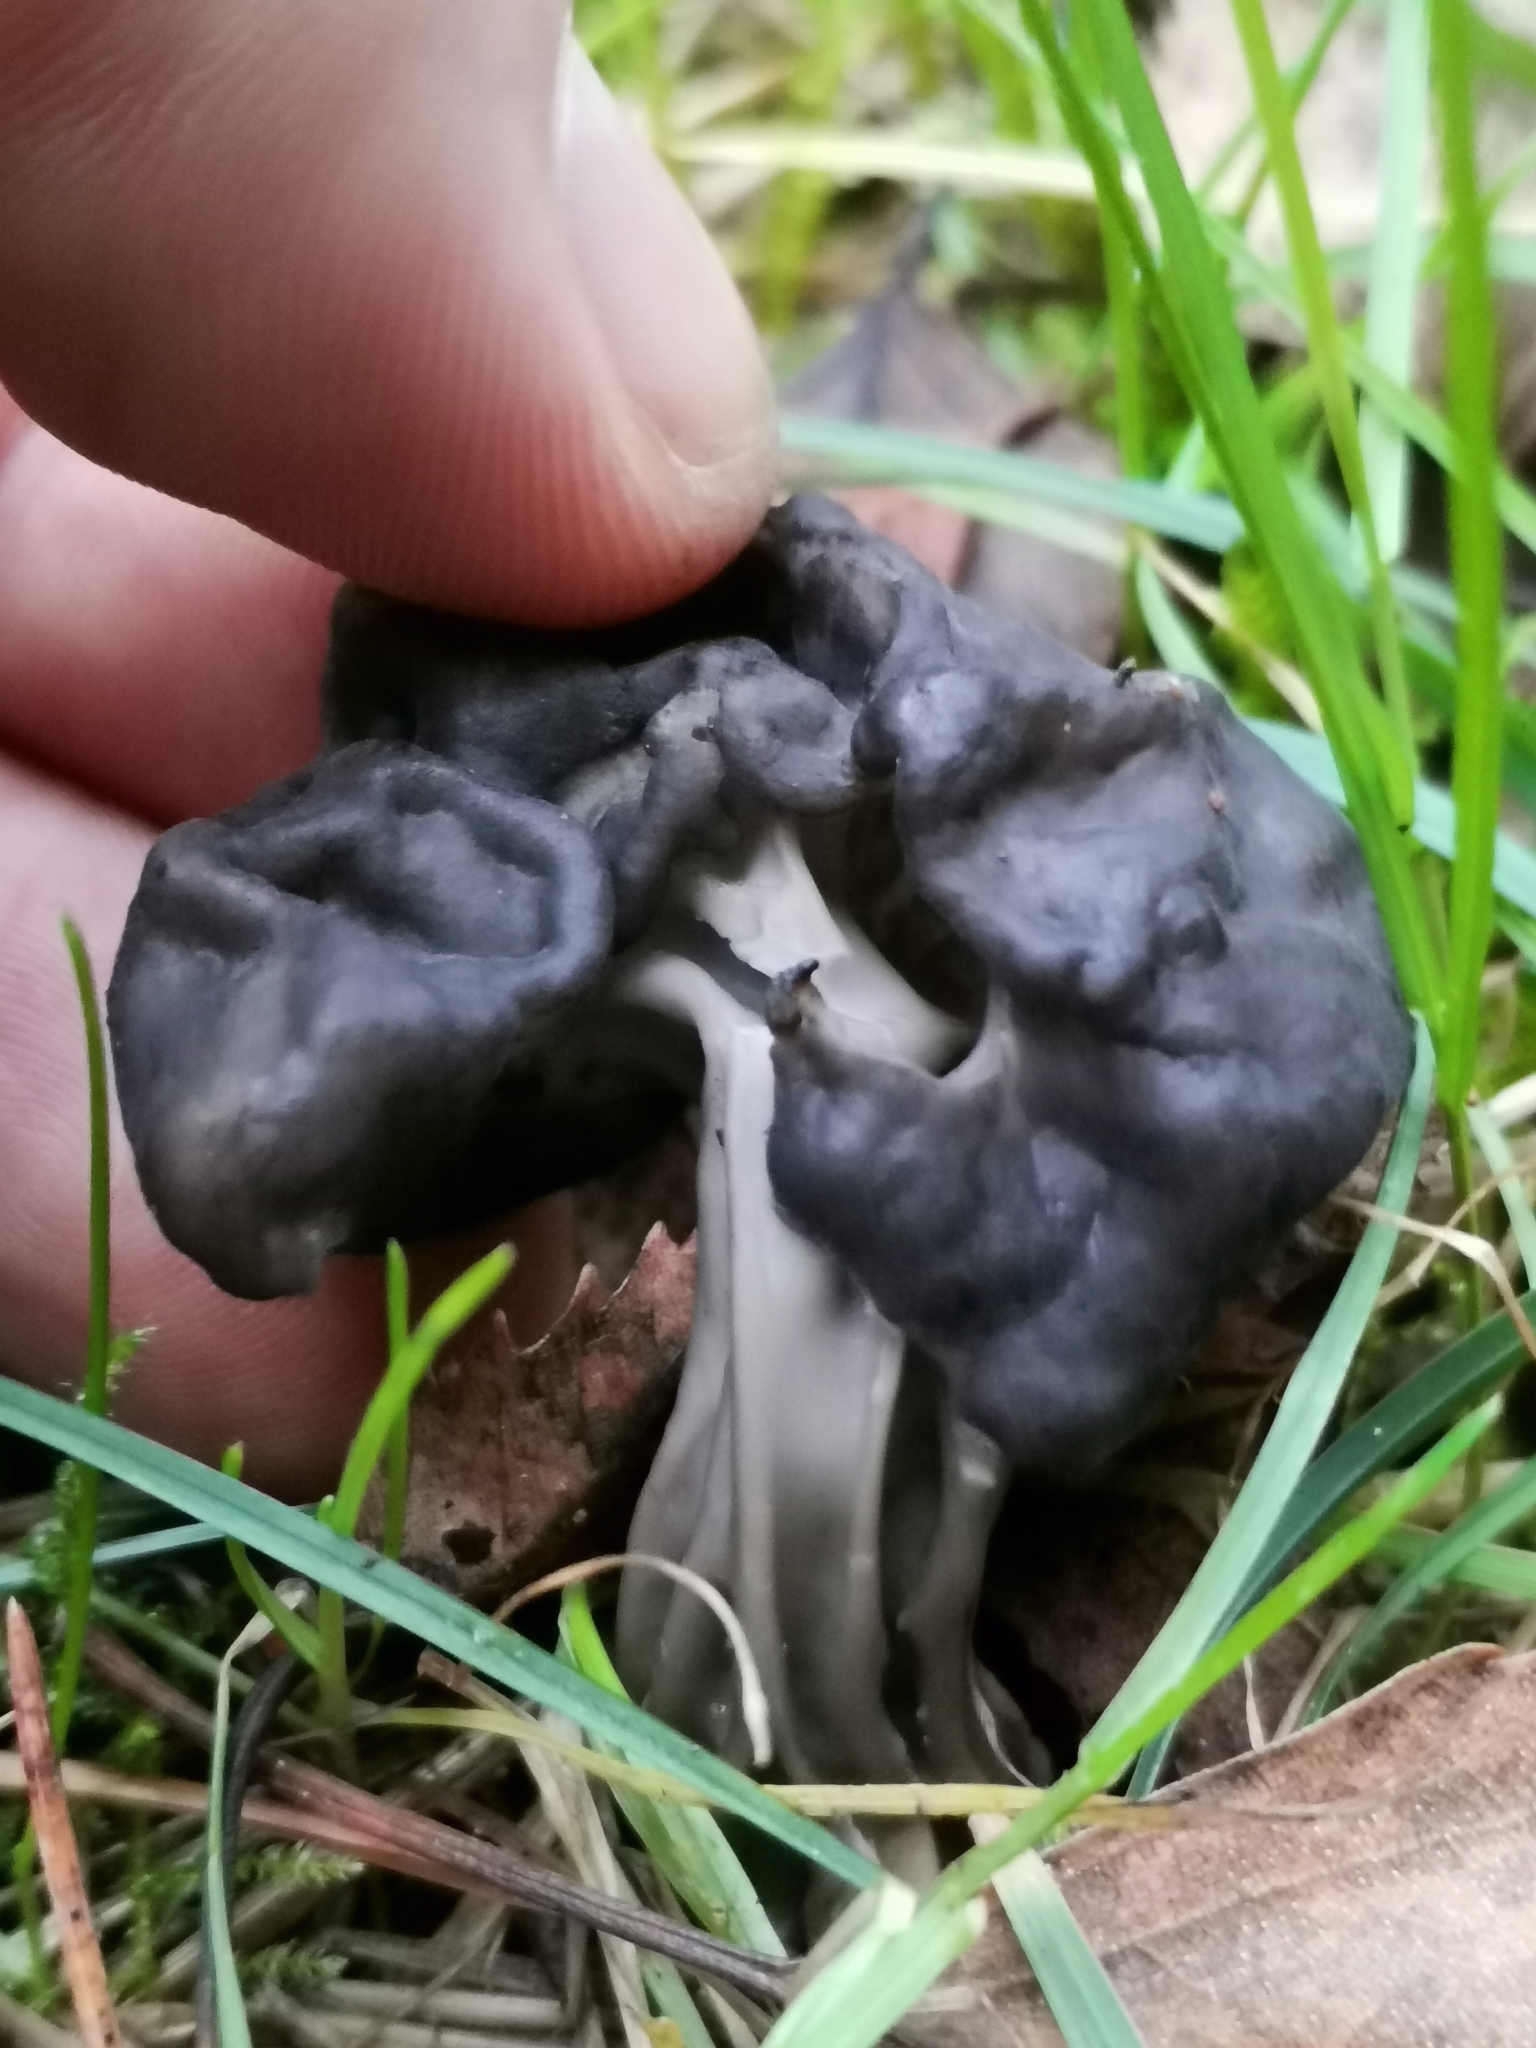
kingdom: Fungi
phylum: Ascomycota
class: Pezizomycetes
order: Pezizales
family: Helvellaceae
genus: Helvella
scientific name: Helvella lacunosa
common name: Elfin saddle
